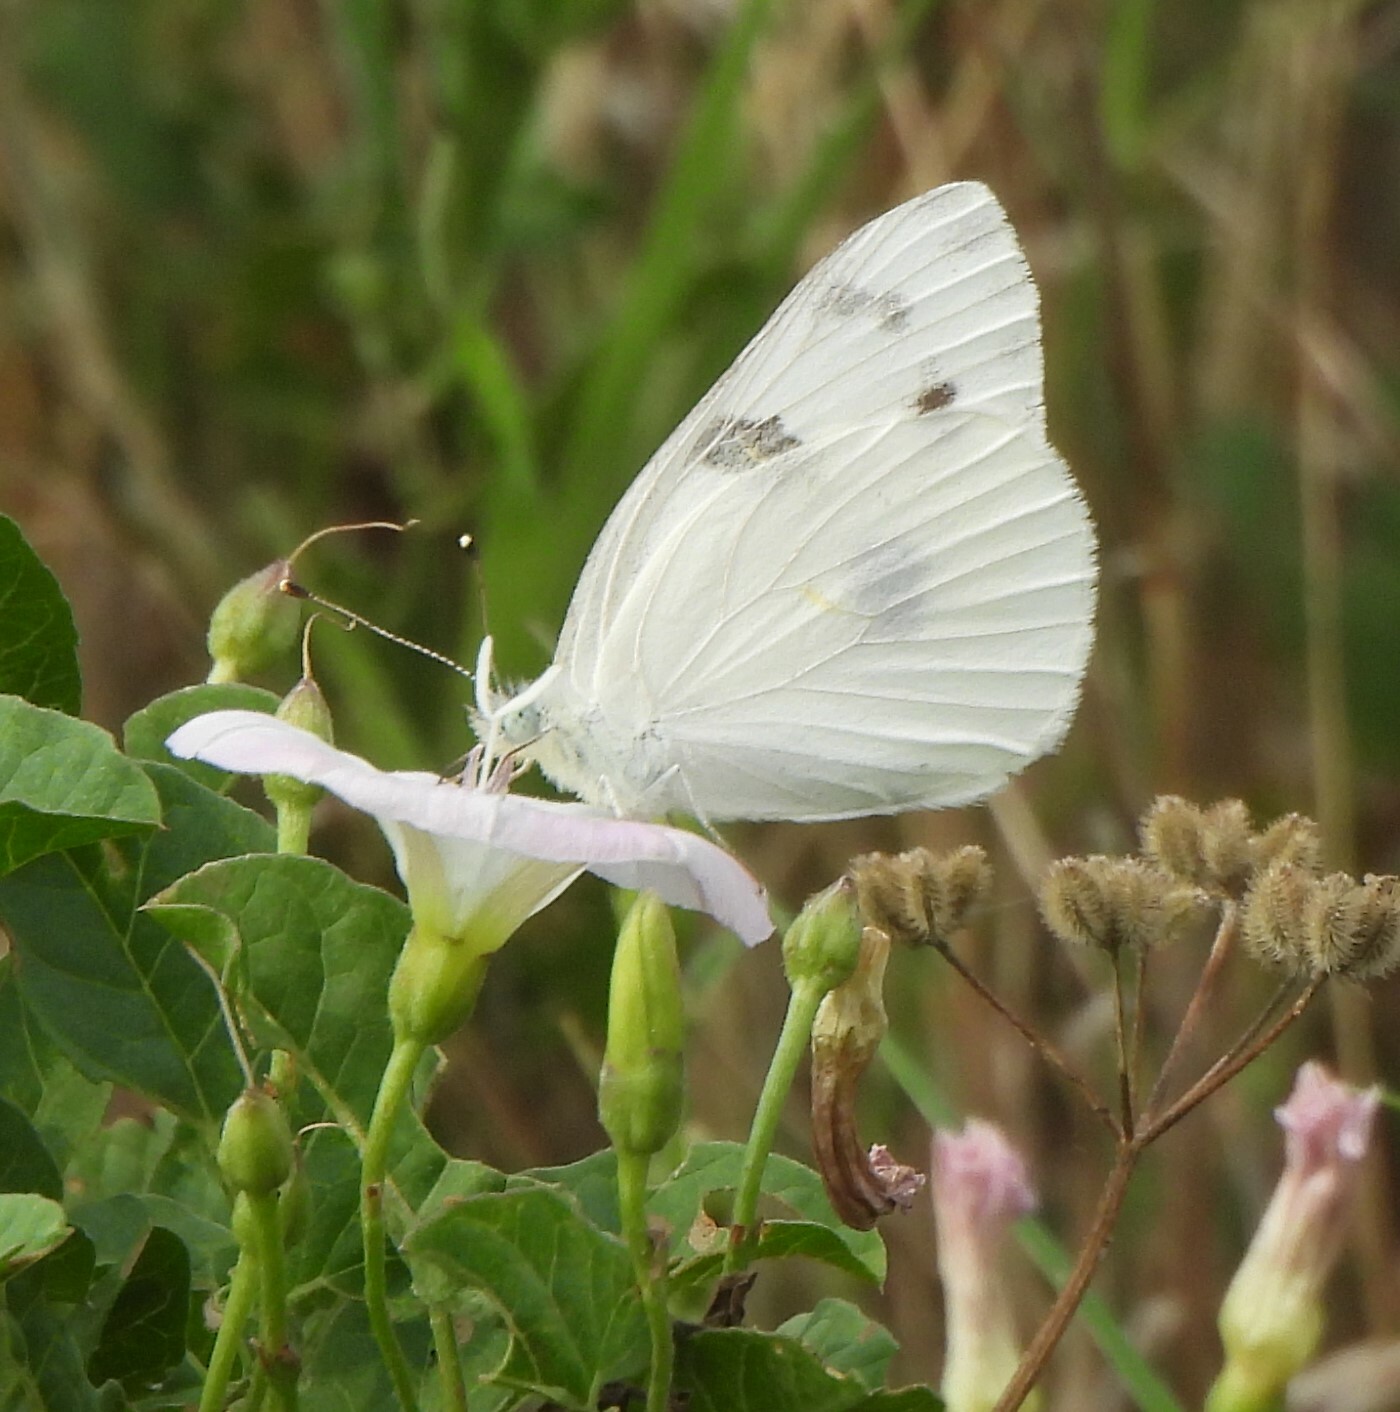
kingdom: Animalia
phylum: Arthropoda
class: Insecta
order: Lepidoptera
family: Pieridae
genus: Pontia
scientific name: Pontia protodice
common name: Checkered white
